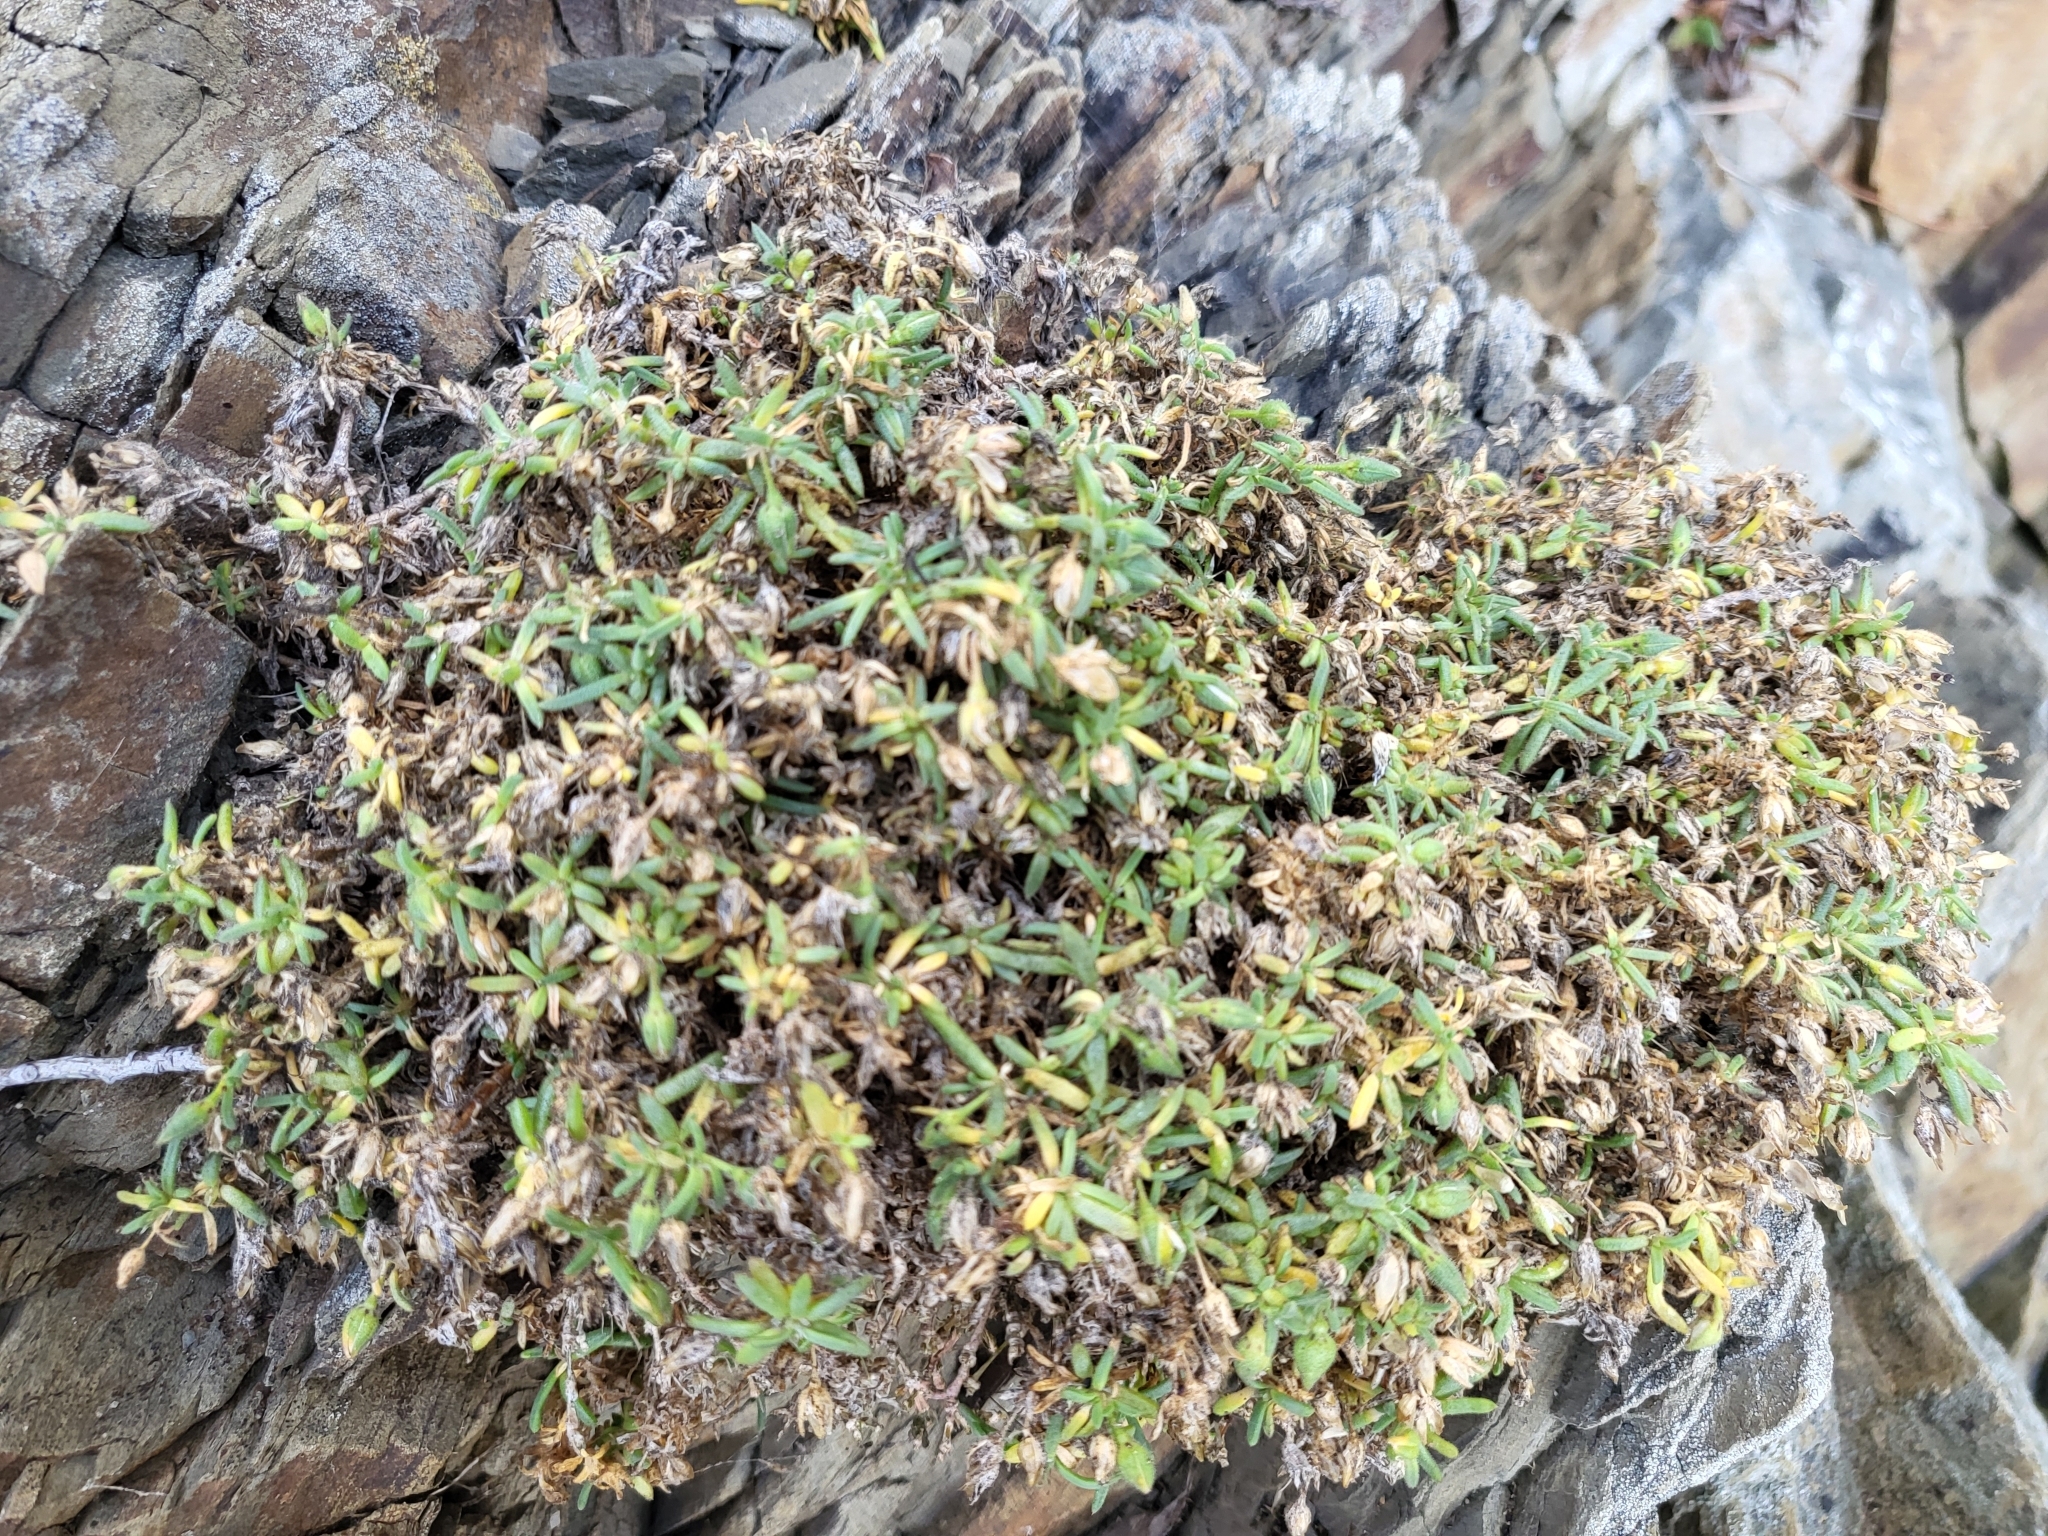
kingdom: Plantae
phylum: Tracheophyta
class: Magnoliopsida
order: Caryophyllales
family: Caryophyllaceae
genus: Spergularia
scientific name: Spergularia macrotheca
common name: Beach sand-spurrey
